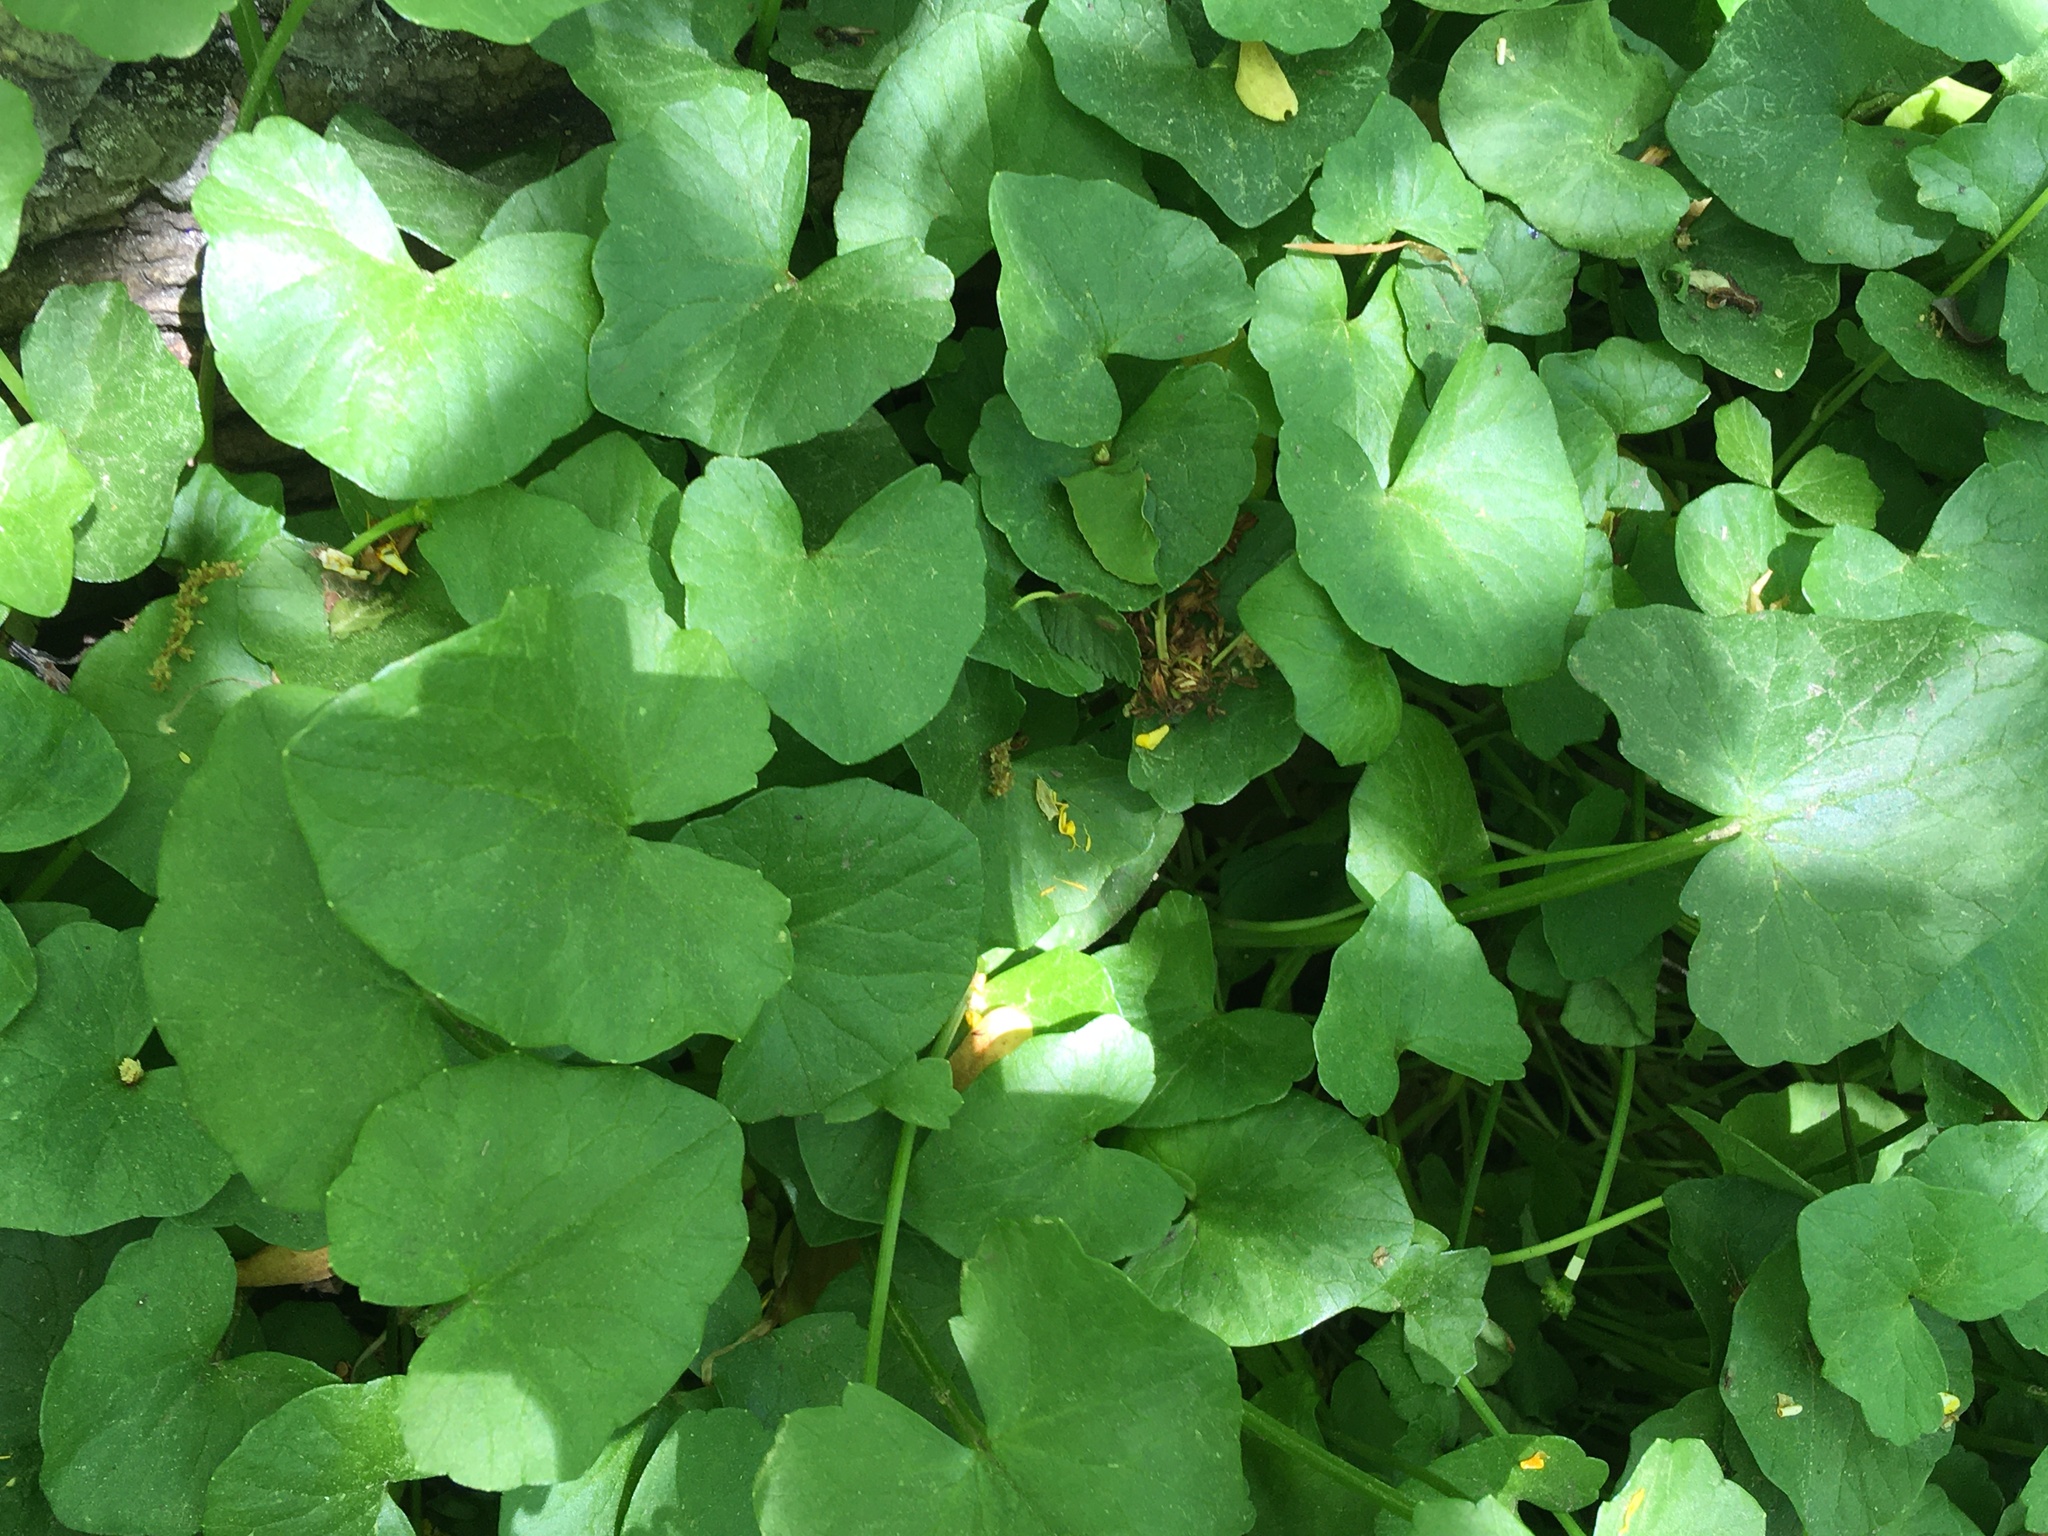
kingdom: Plantae
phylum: Tracheophyta
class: Magnoliopsida
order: Ranunculales
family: Ranunculaceae
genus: Ficaria
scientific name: Ficaria verna
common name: Lesser celandine
